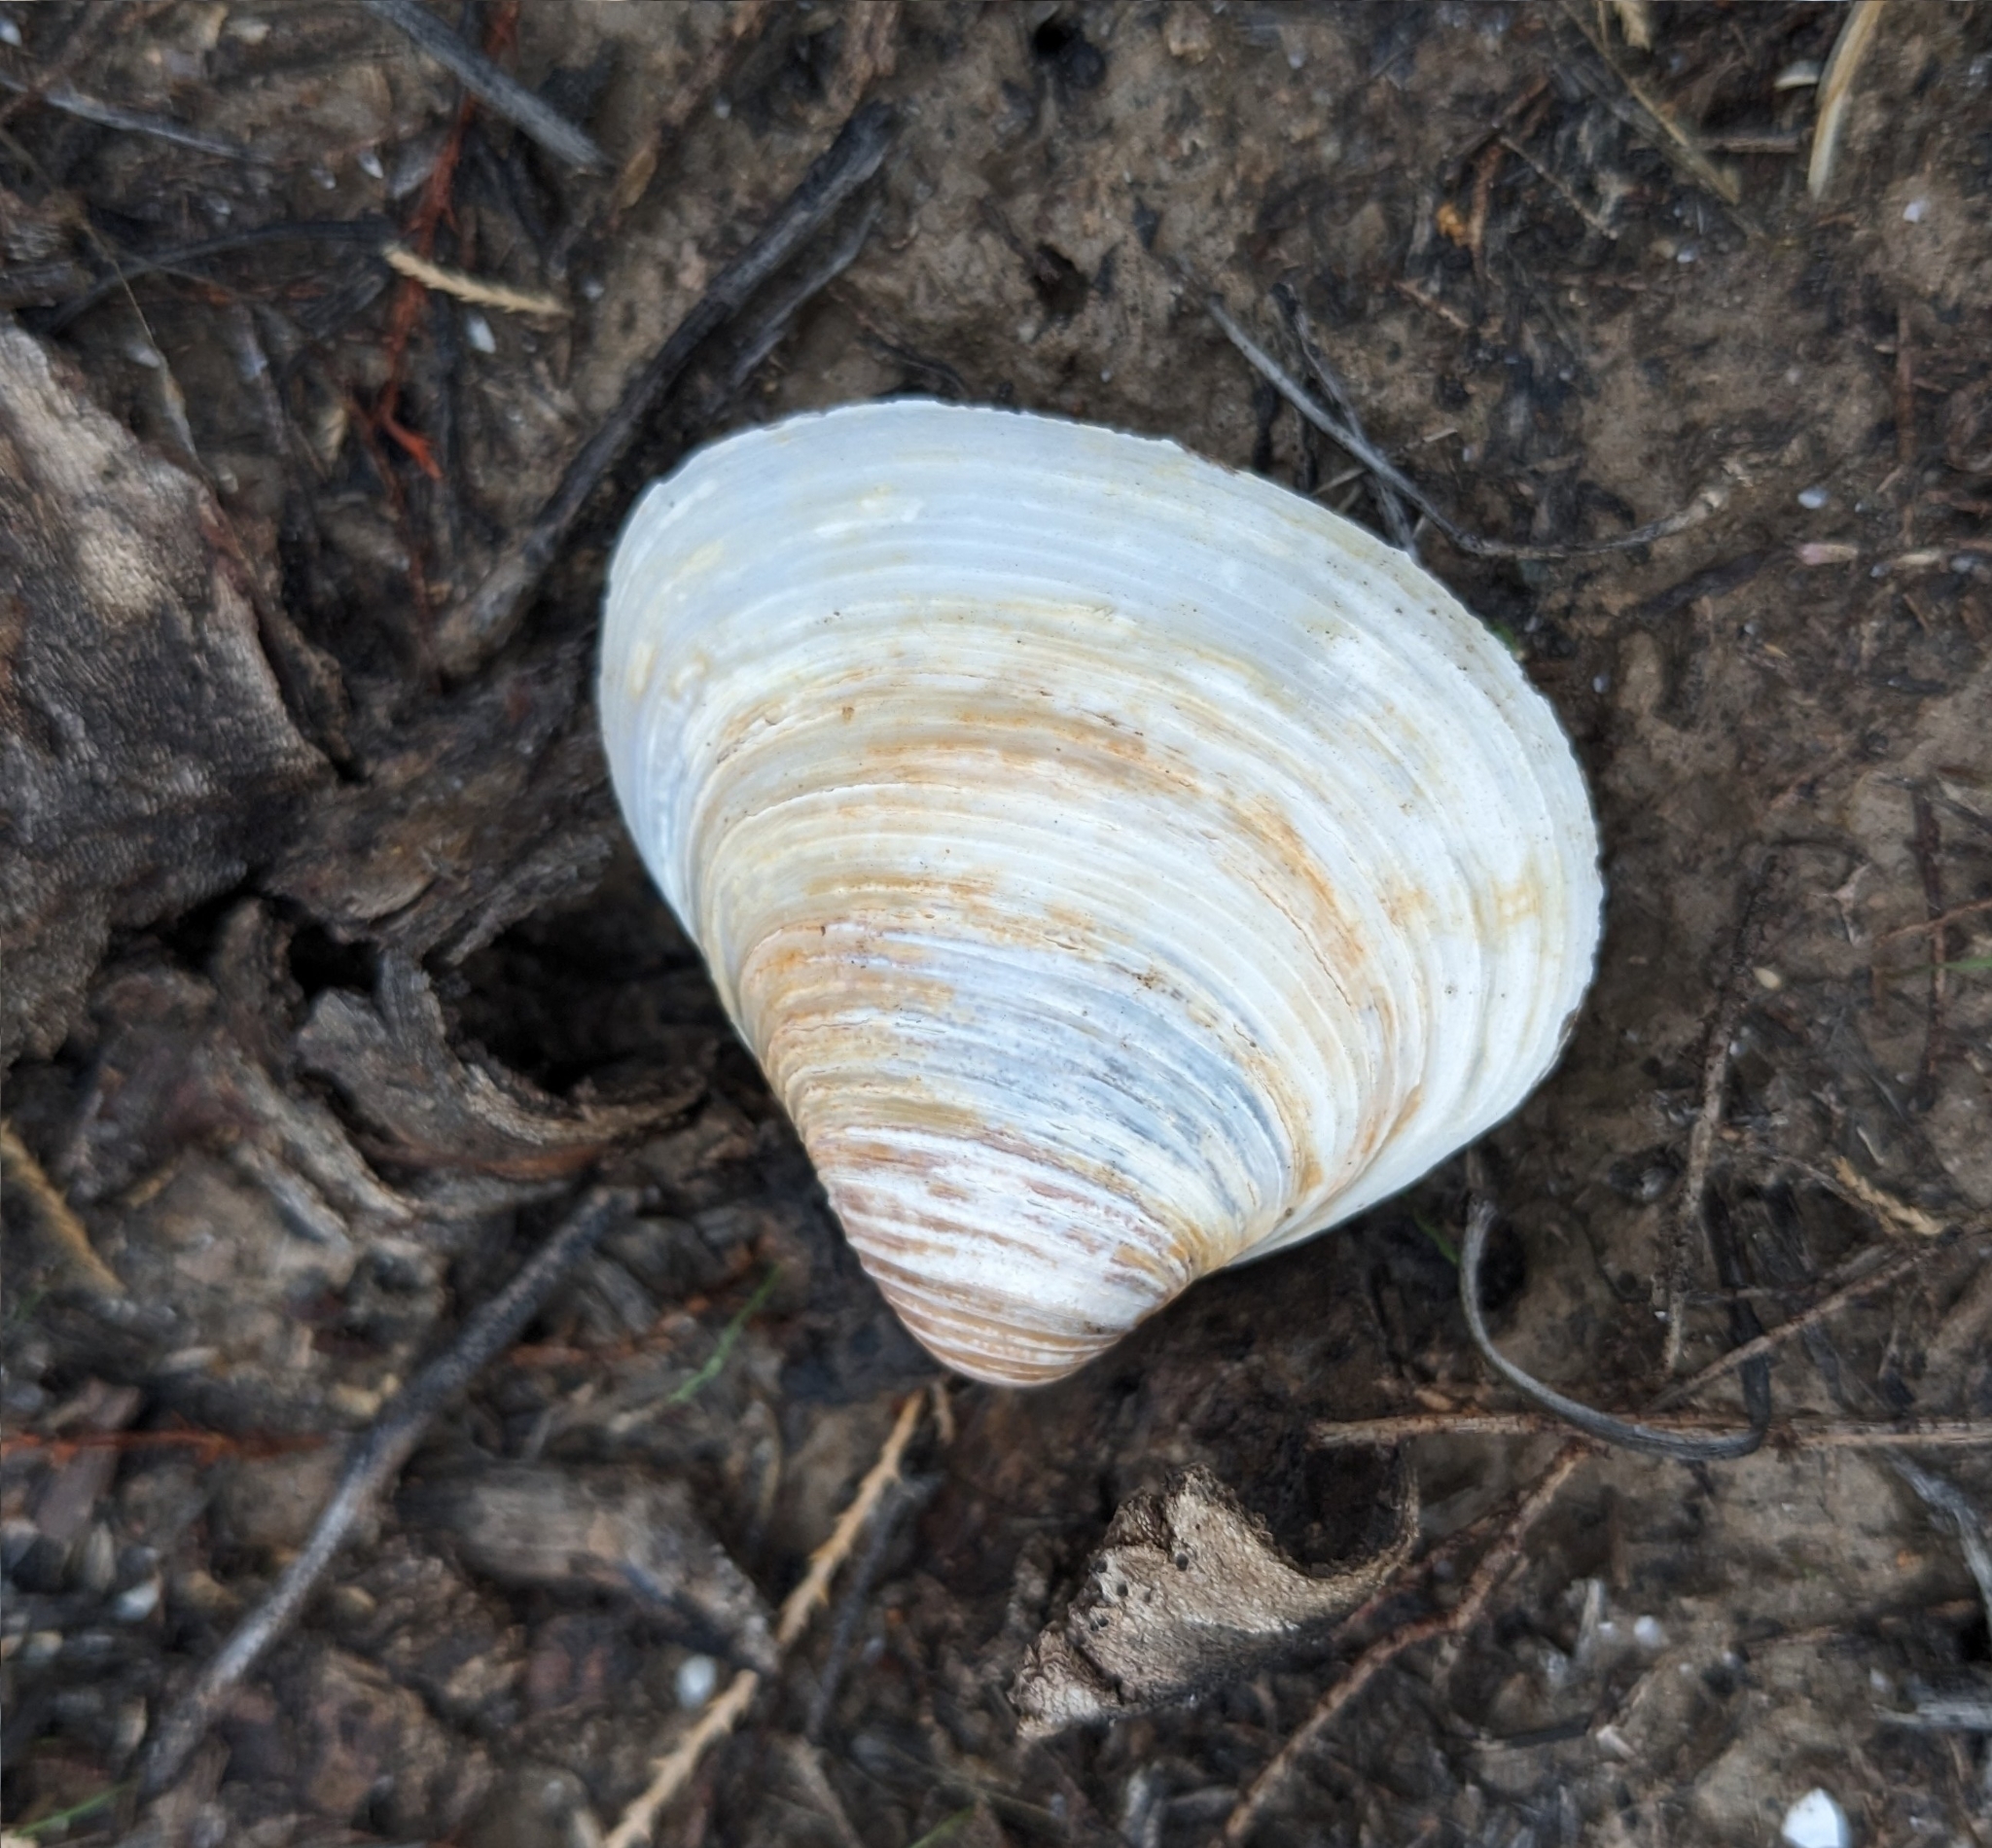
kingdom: Animalia
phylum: Mollusca
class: Bivalvia
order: Venerida
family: Cyrenidae
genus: Corbicula
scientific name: Corbicula fluminea
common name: Asian clam
